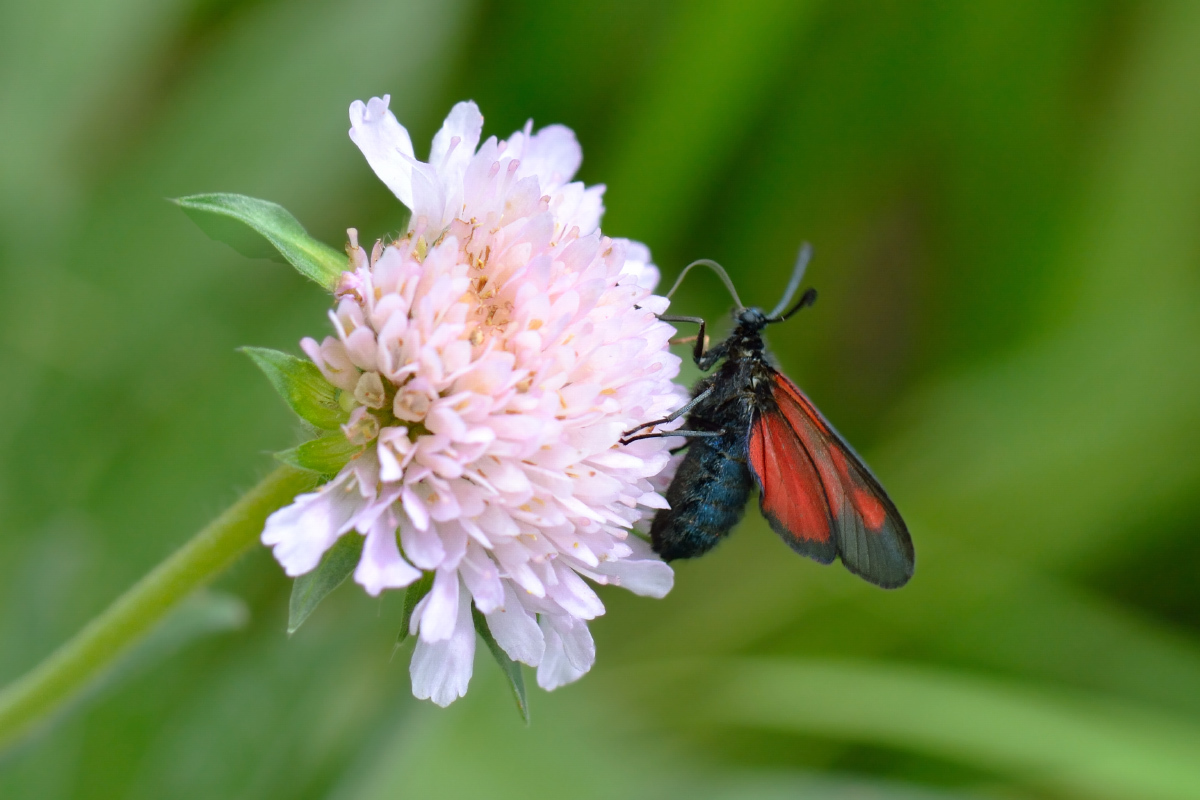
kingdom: Animalia
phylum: Arthropoda
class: Insecta
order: Lepidoptera
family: Zygaenidae
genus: Zygaena
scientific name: Zygaena osterodensis
